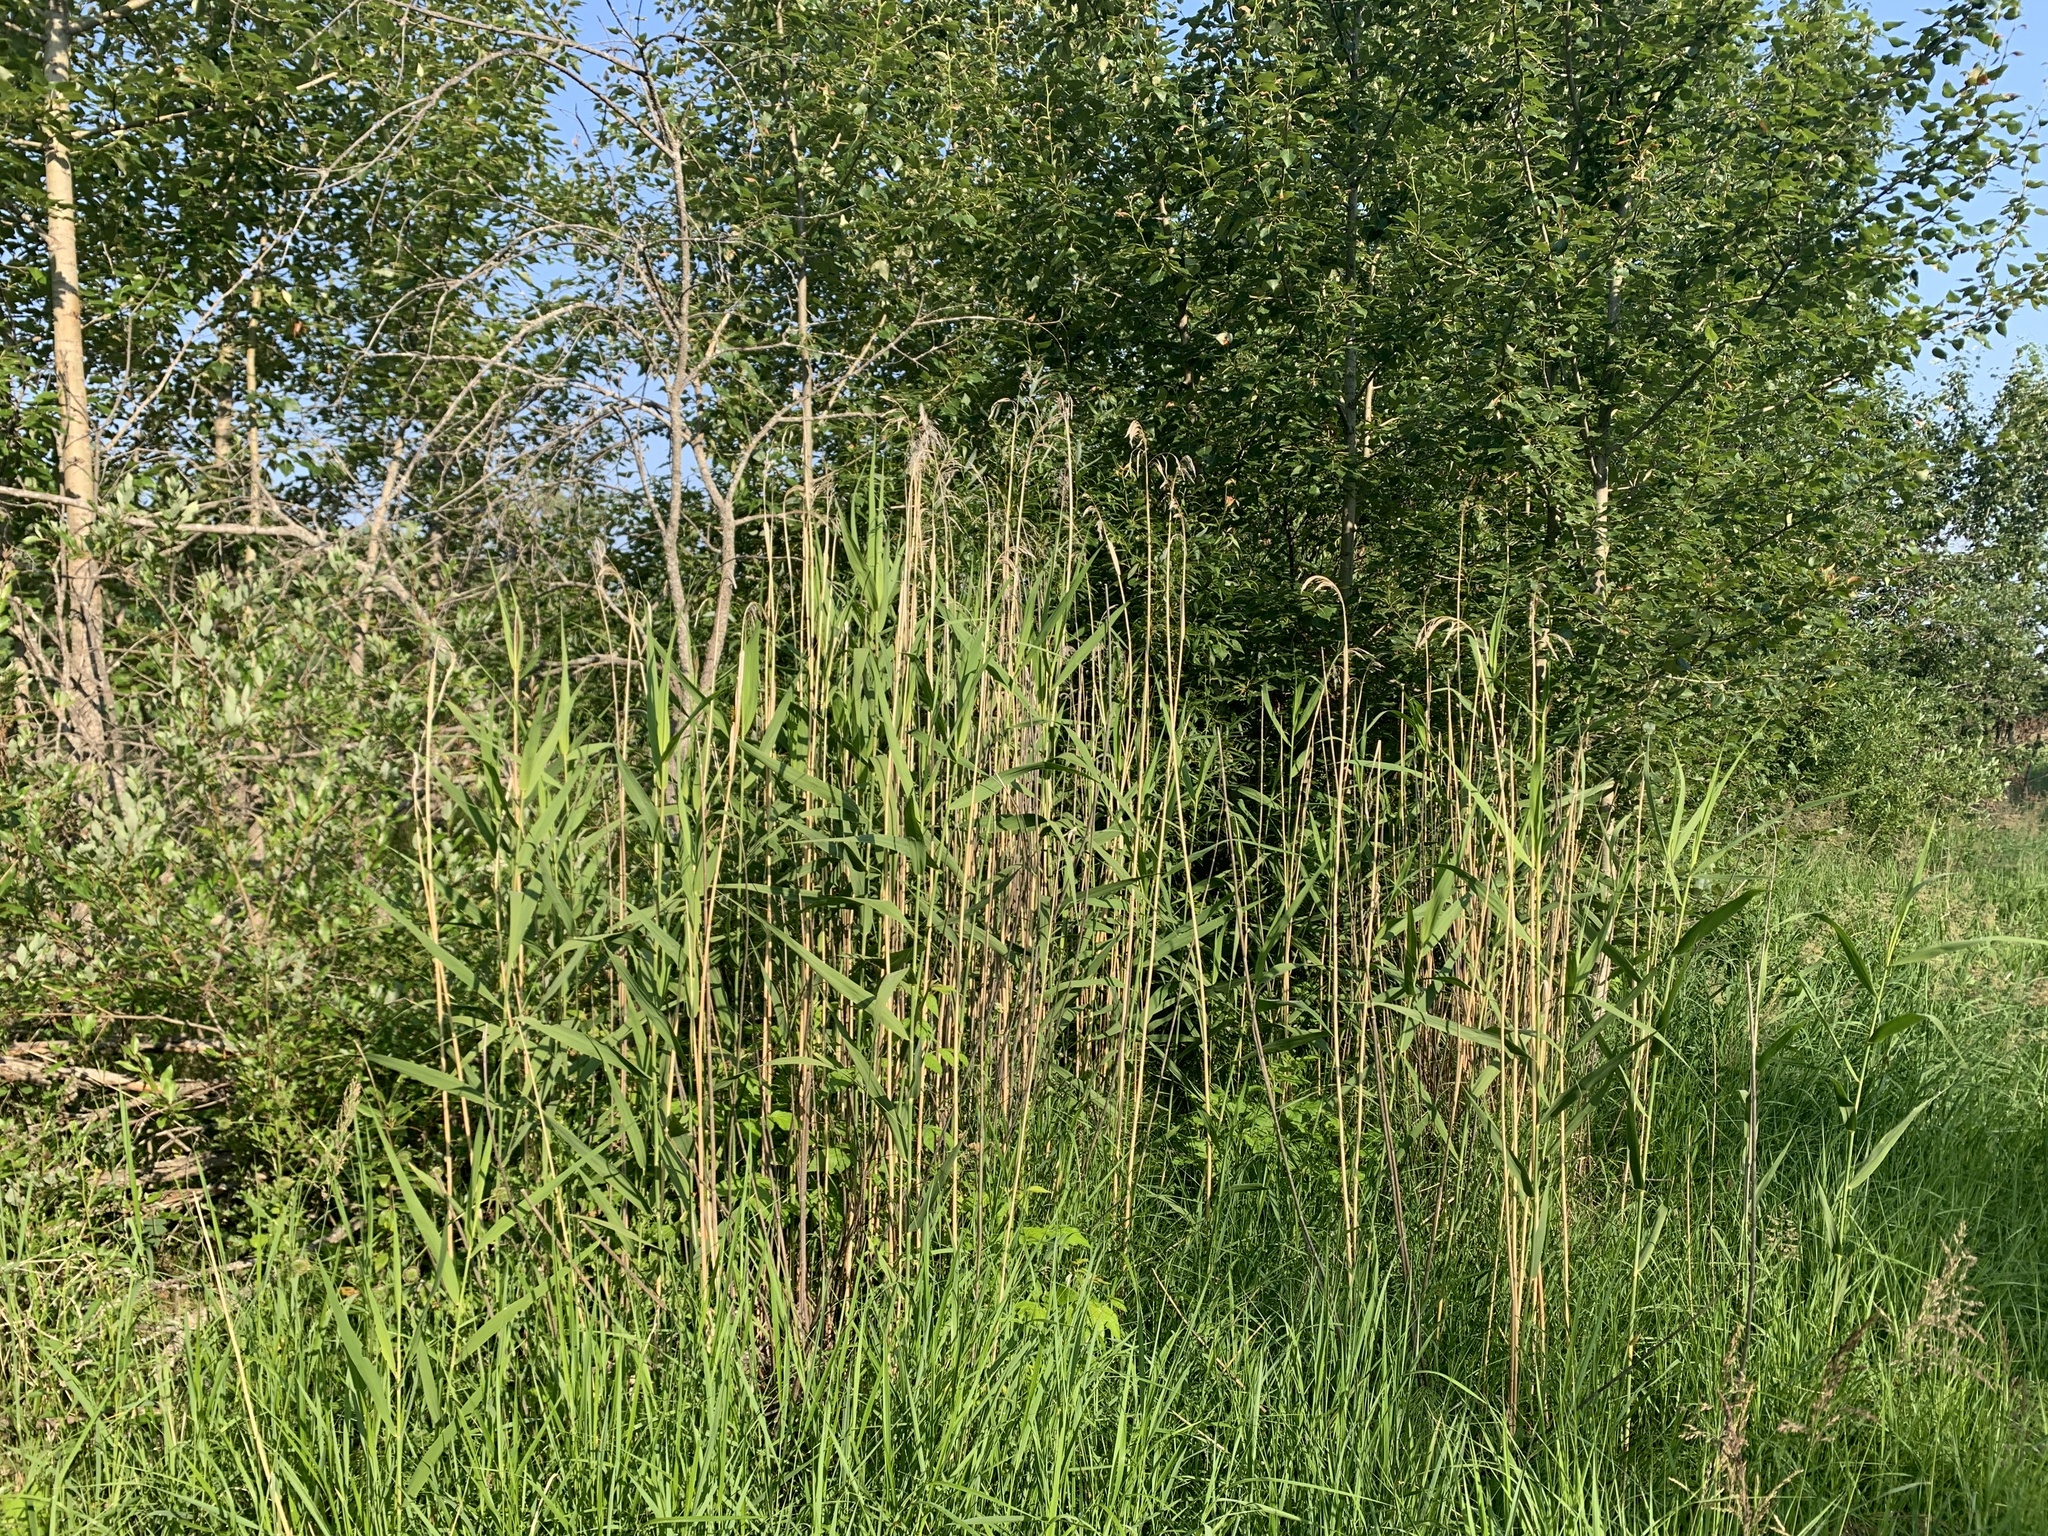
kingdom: Plantae
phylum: Tracheophyta
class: Liliopsida
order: Poales
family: Poaceae
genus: Phragmites
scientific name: Phragmites australis
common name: Common reed
